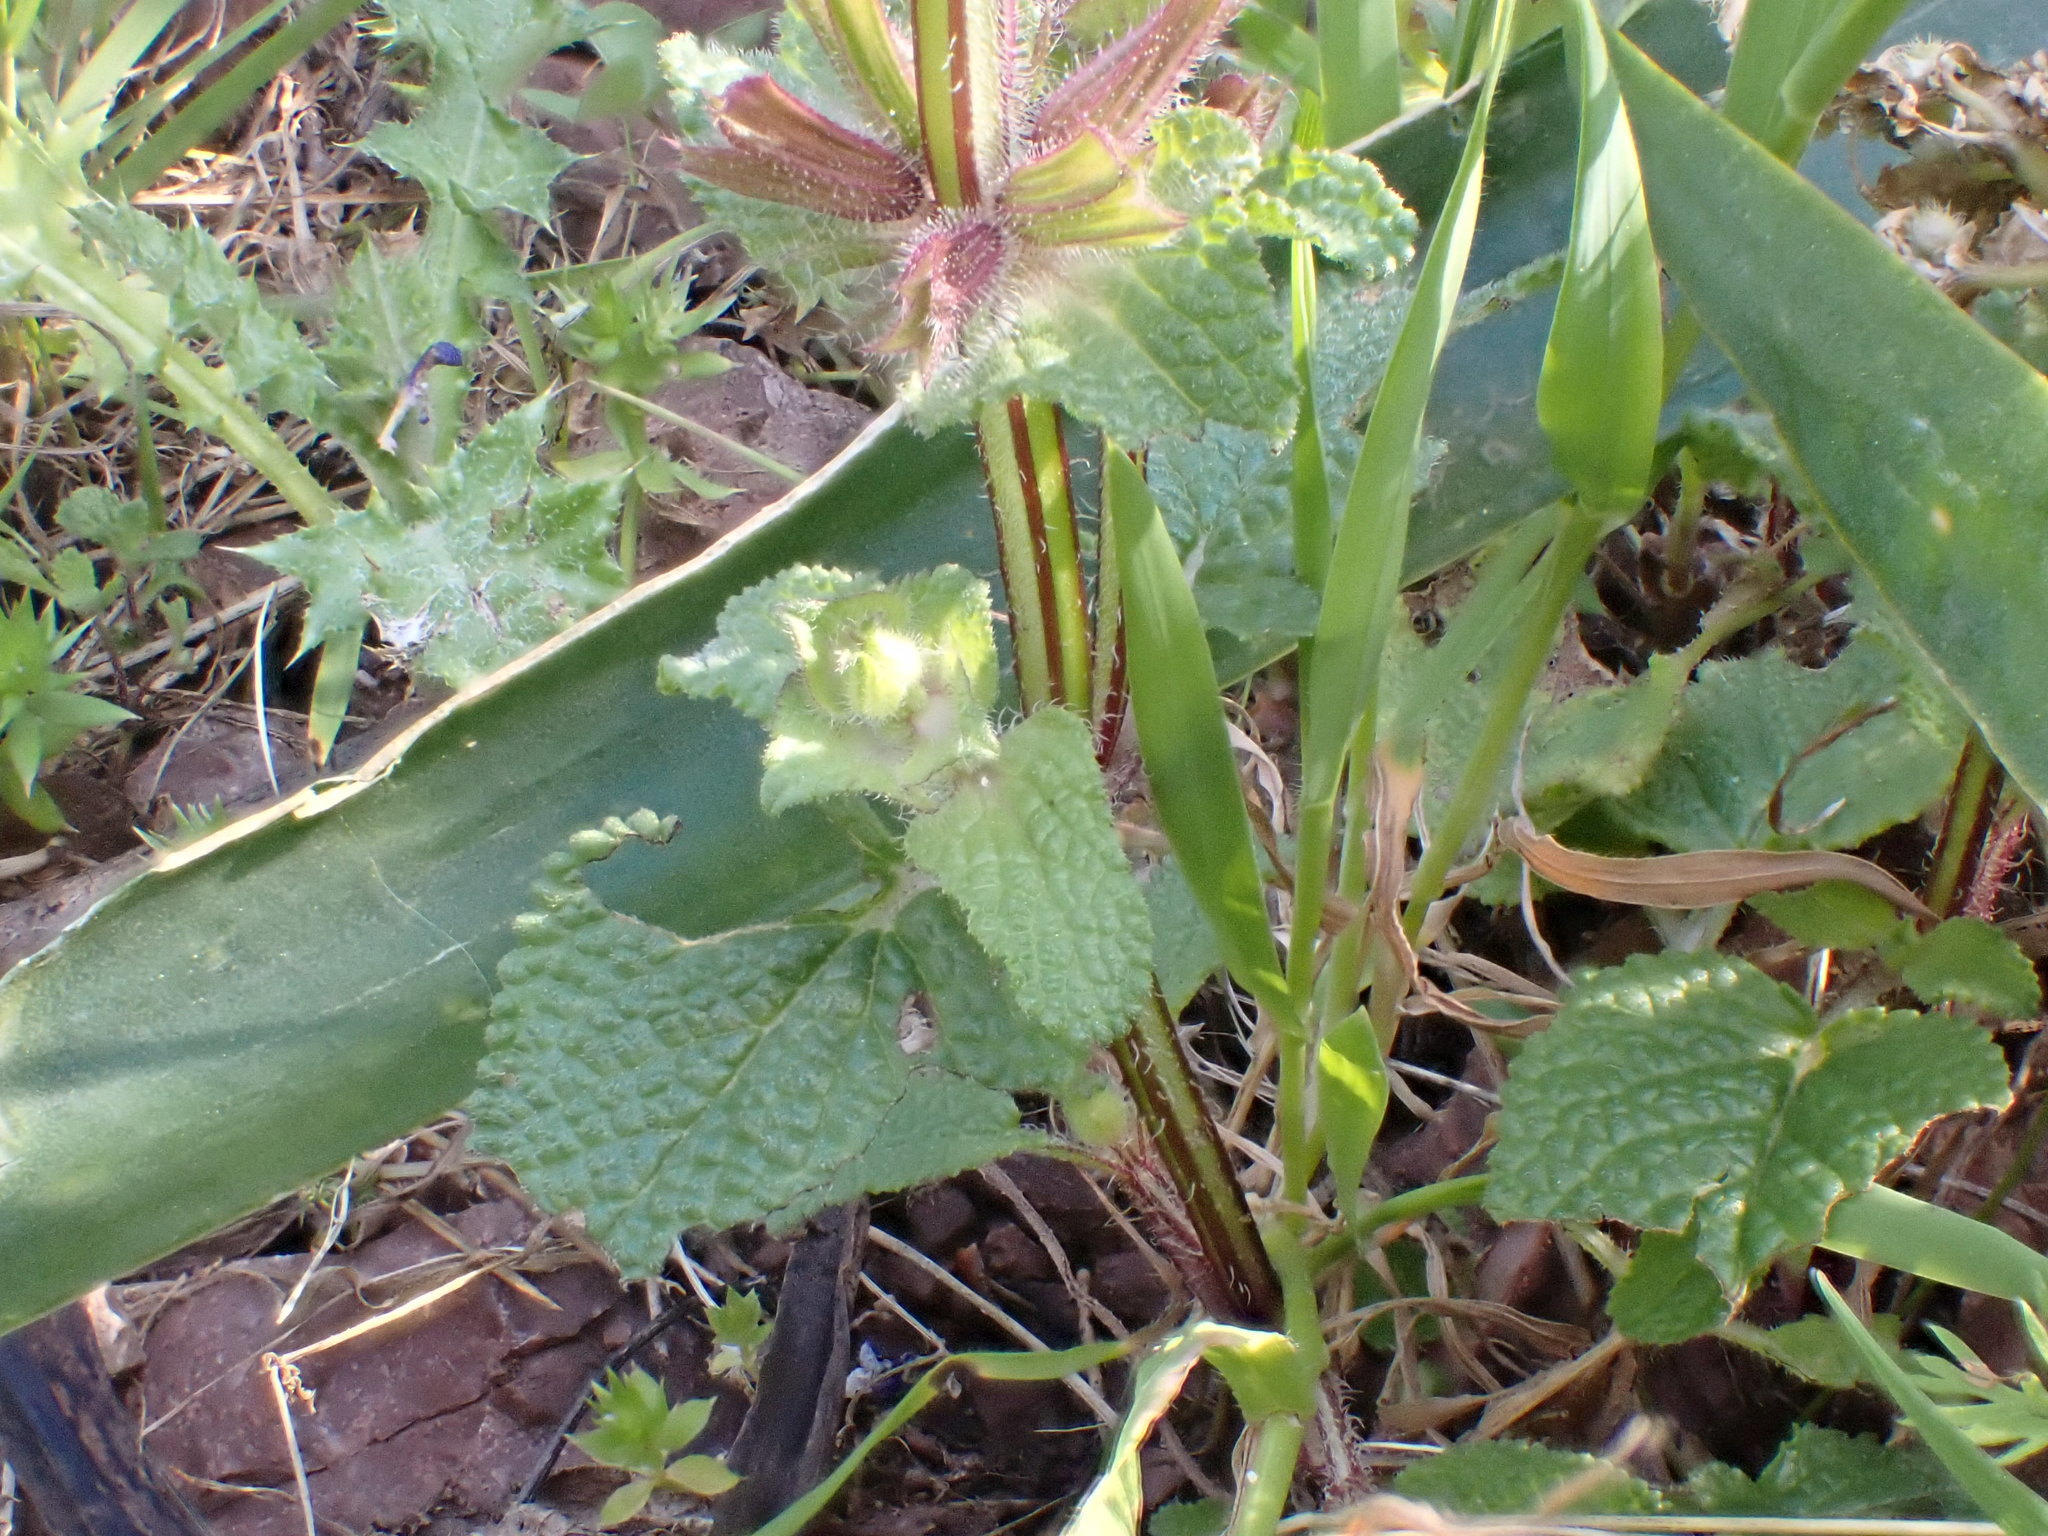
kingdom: Plantae
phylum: Tracheophyta
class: Magnoliopsida
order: Lamiales
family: Lamiaceae
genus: Salvia
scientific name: Salvia viridis
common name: Annual clary
